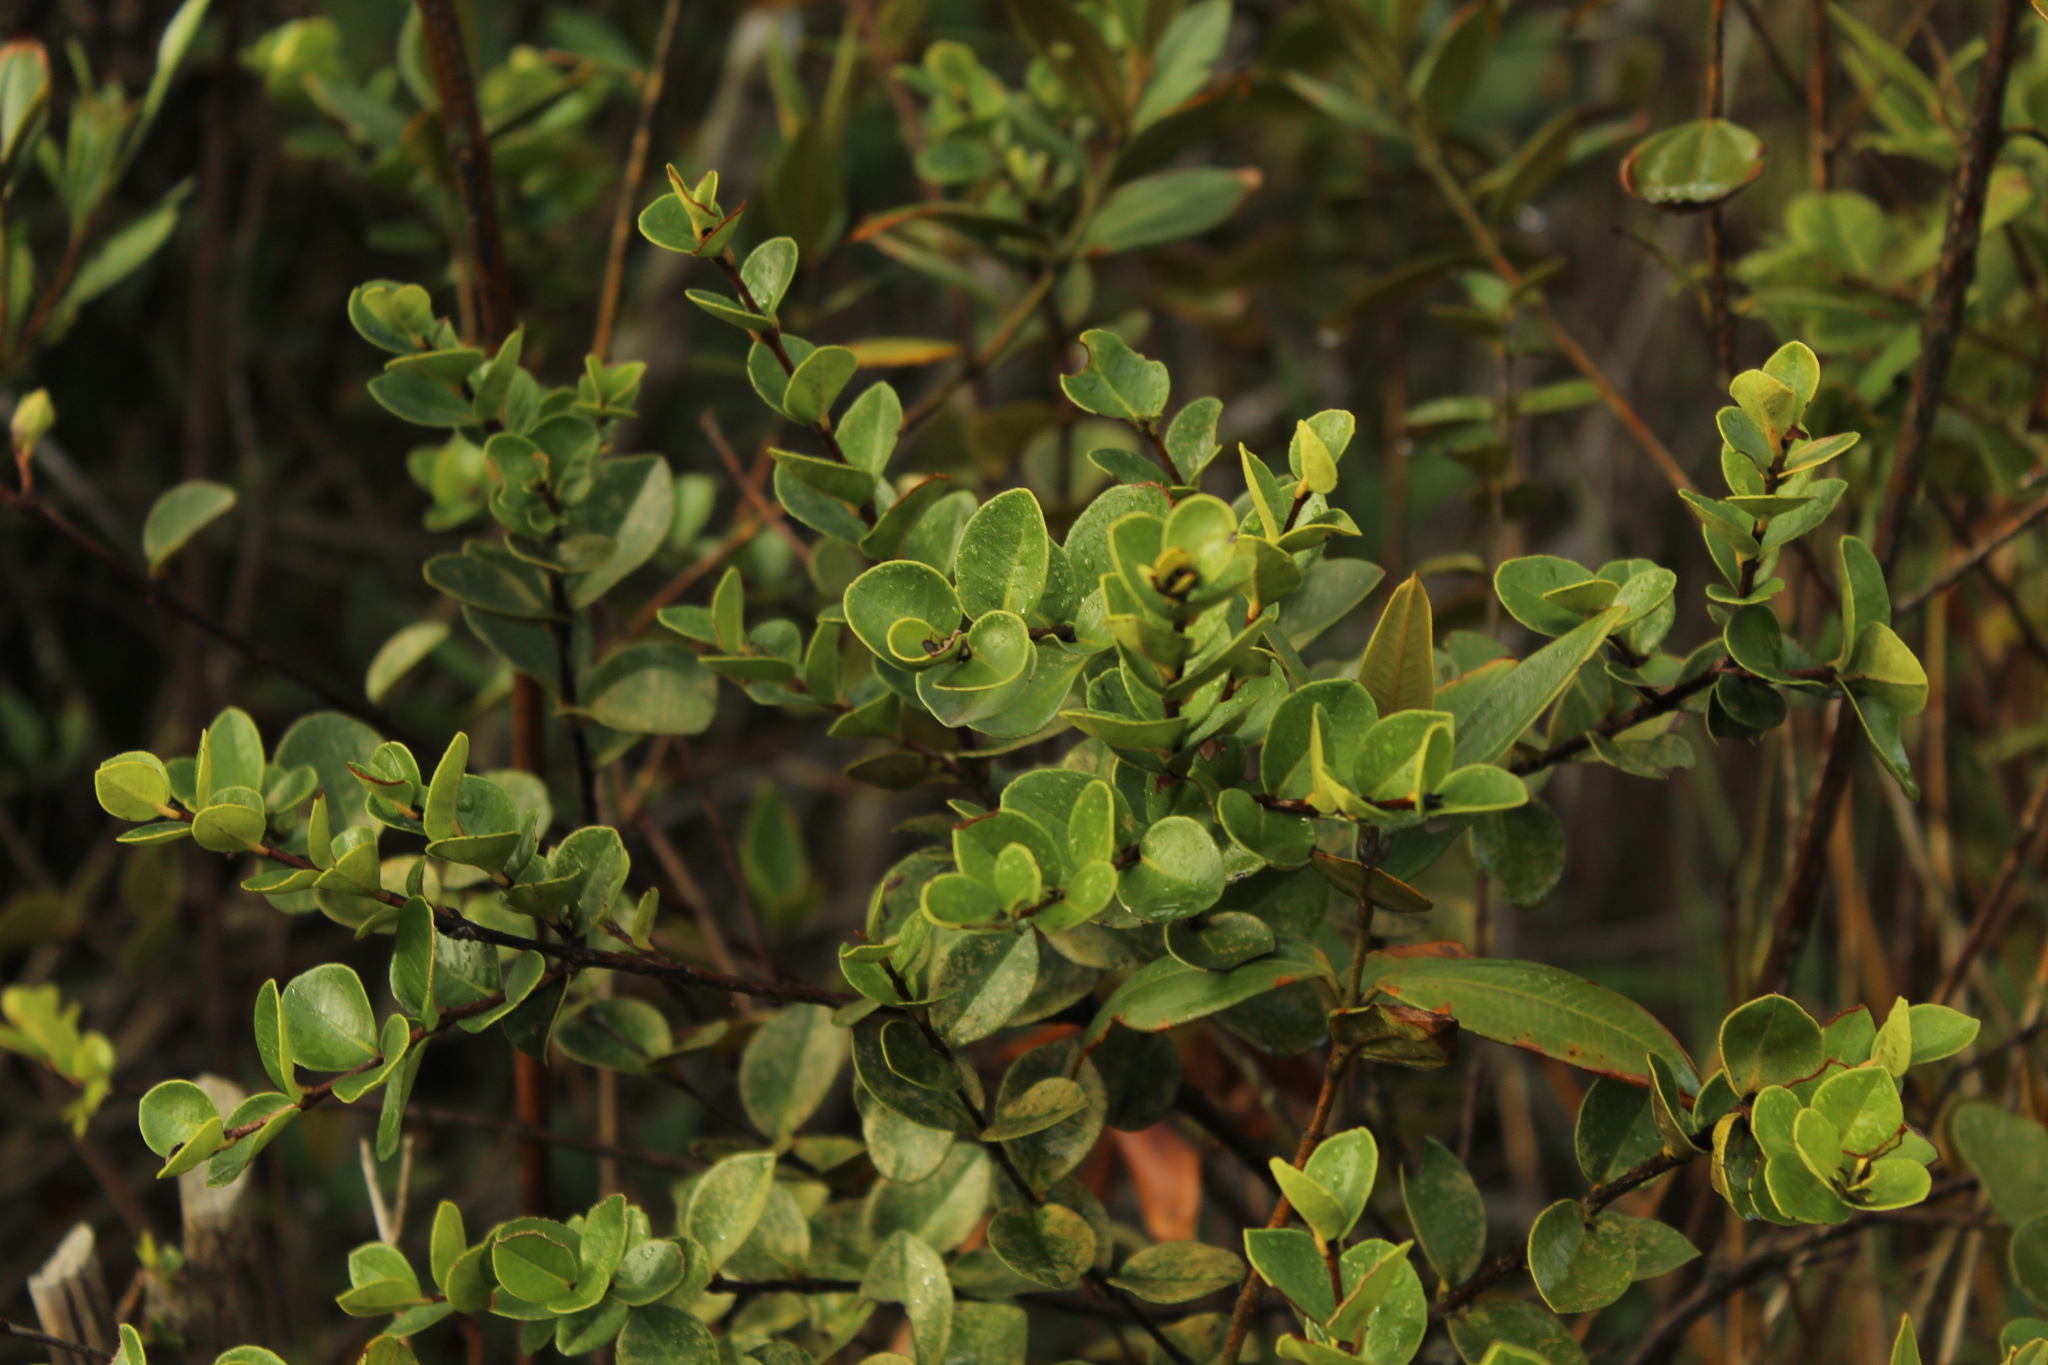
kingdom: Plantae
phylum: Tracheophyta
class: Magnoliopsida
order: Myrtales
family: Myrtaceae
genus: Myrcianthes
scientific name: Myrcianthes leucoxyla
